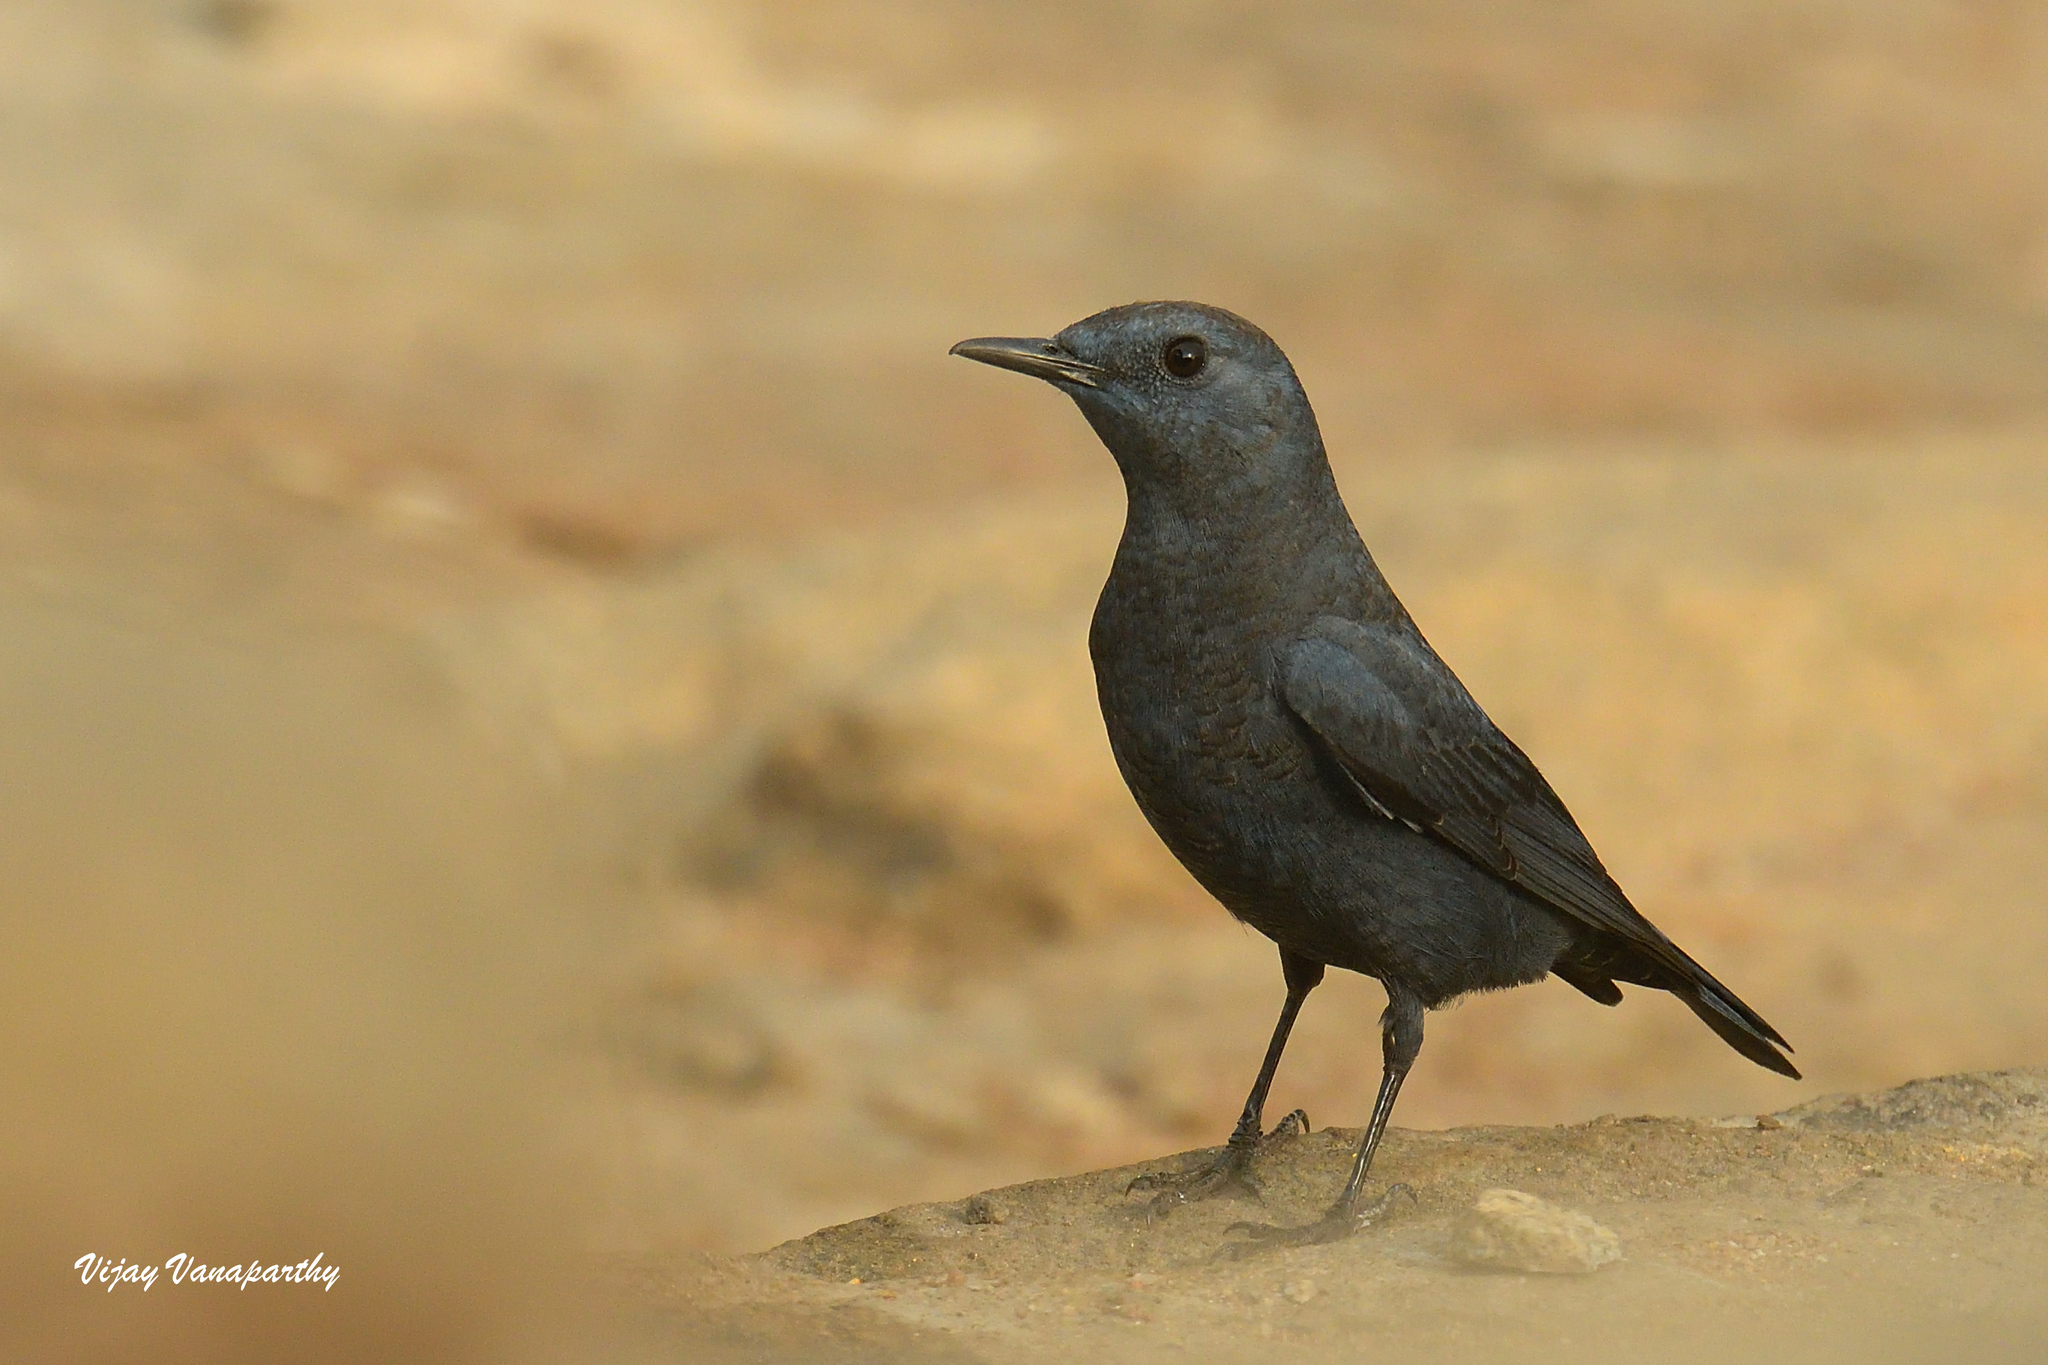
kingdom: Animalia
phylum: Chordata
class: Aves
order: Passeriformes
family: Muscicapidae
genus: Monticola
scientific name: Monticola solitarius
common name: Blue rock thrush
